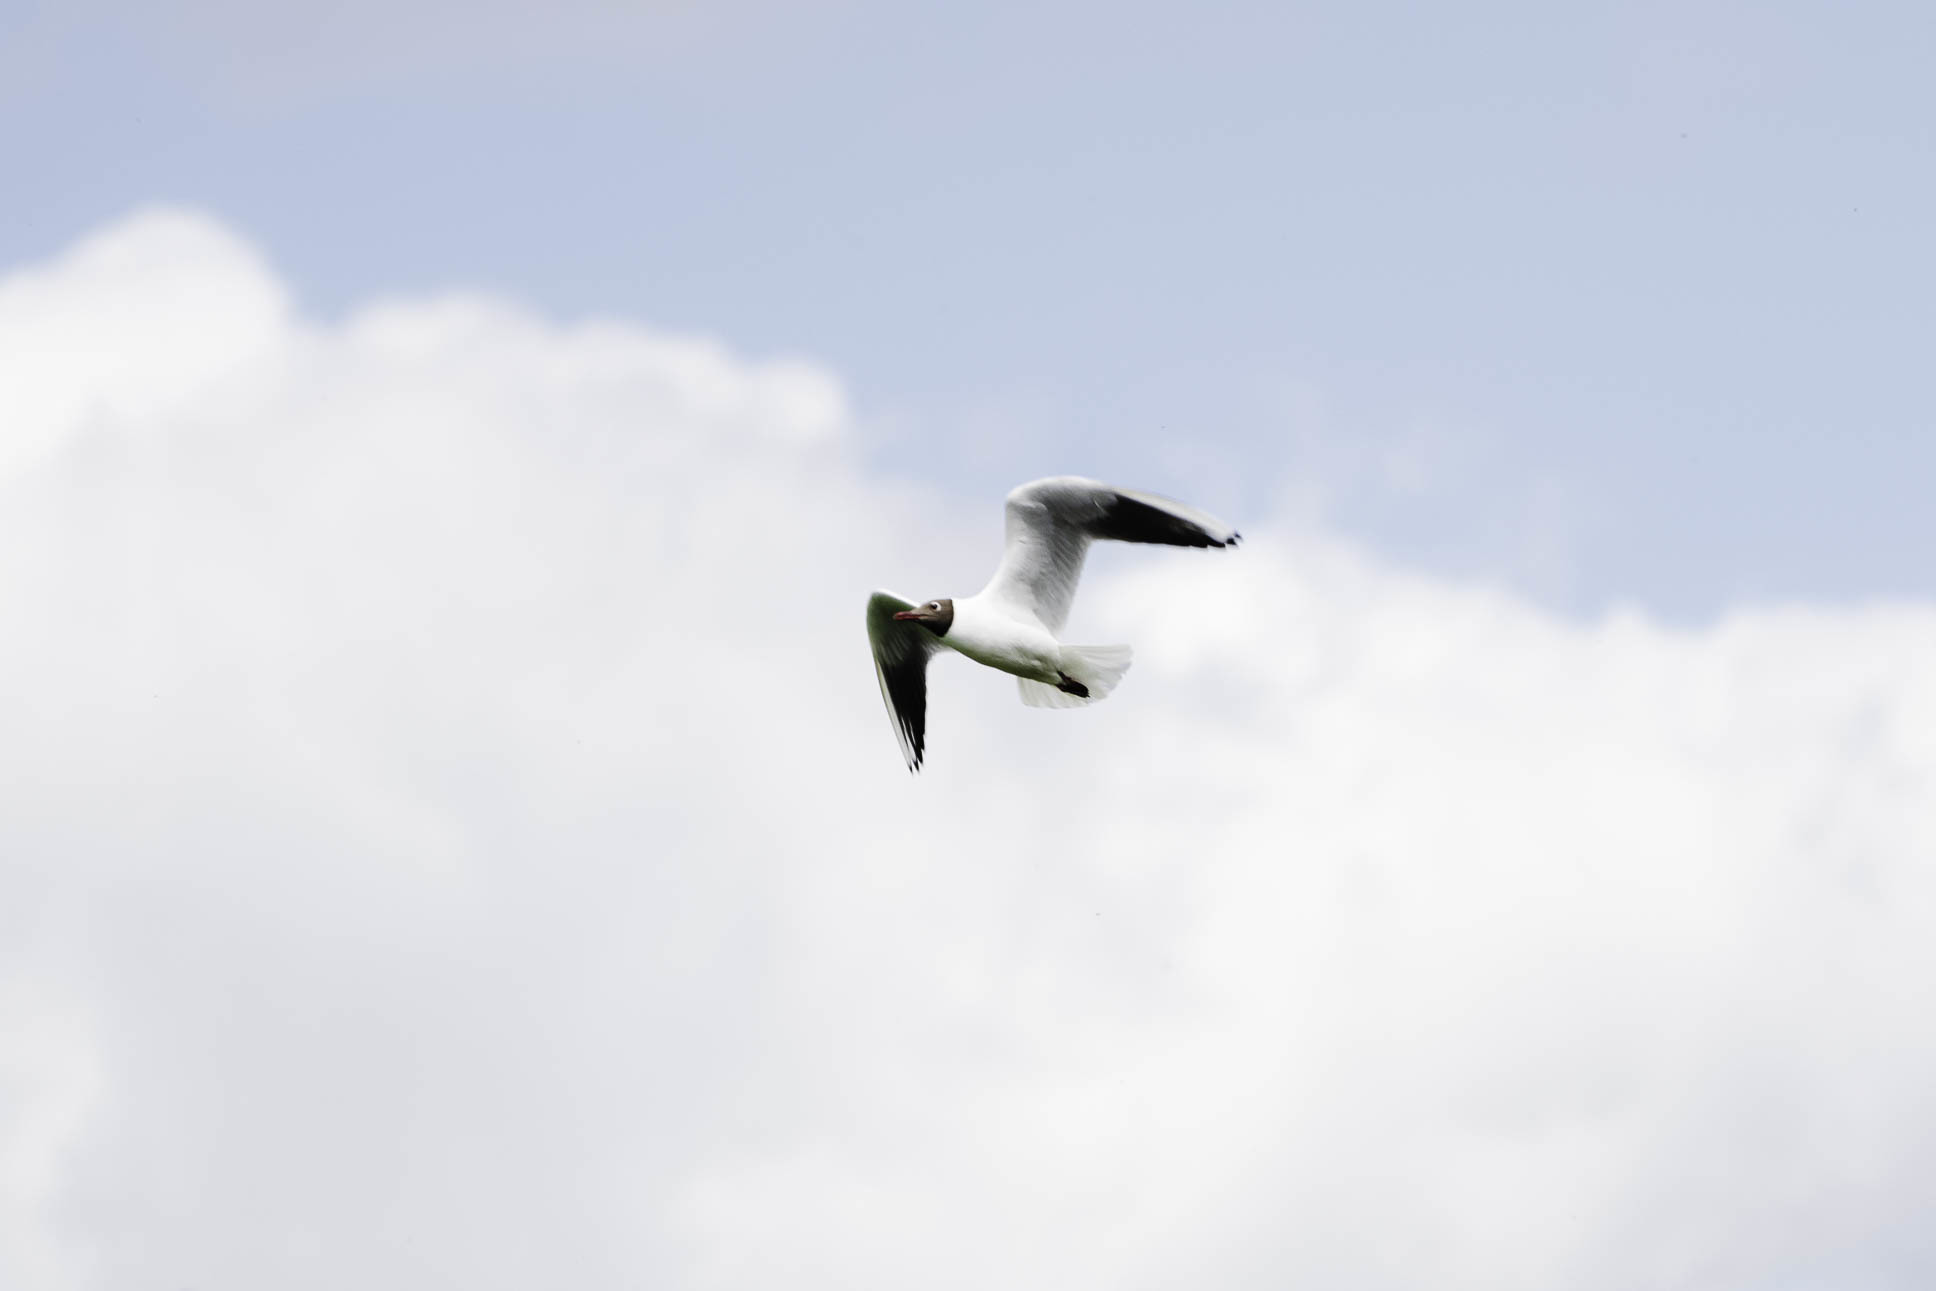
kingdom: Animalia
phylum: Chordata
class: Aves
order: Charadriiformes
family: Laridae
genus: Chroicocephalus
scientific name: Chroicocephalus ridibundus
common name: Black-headed gull
